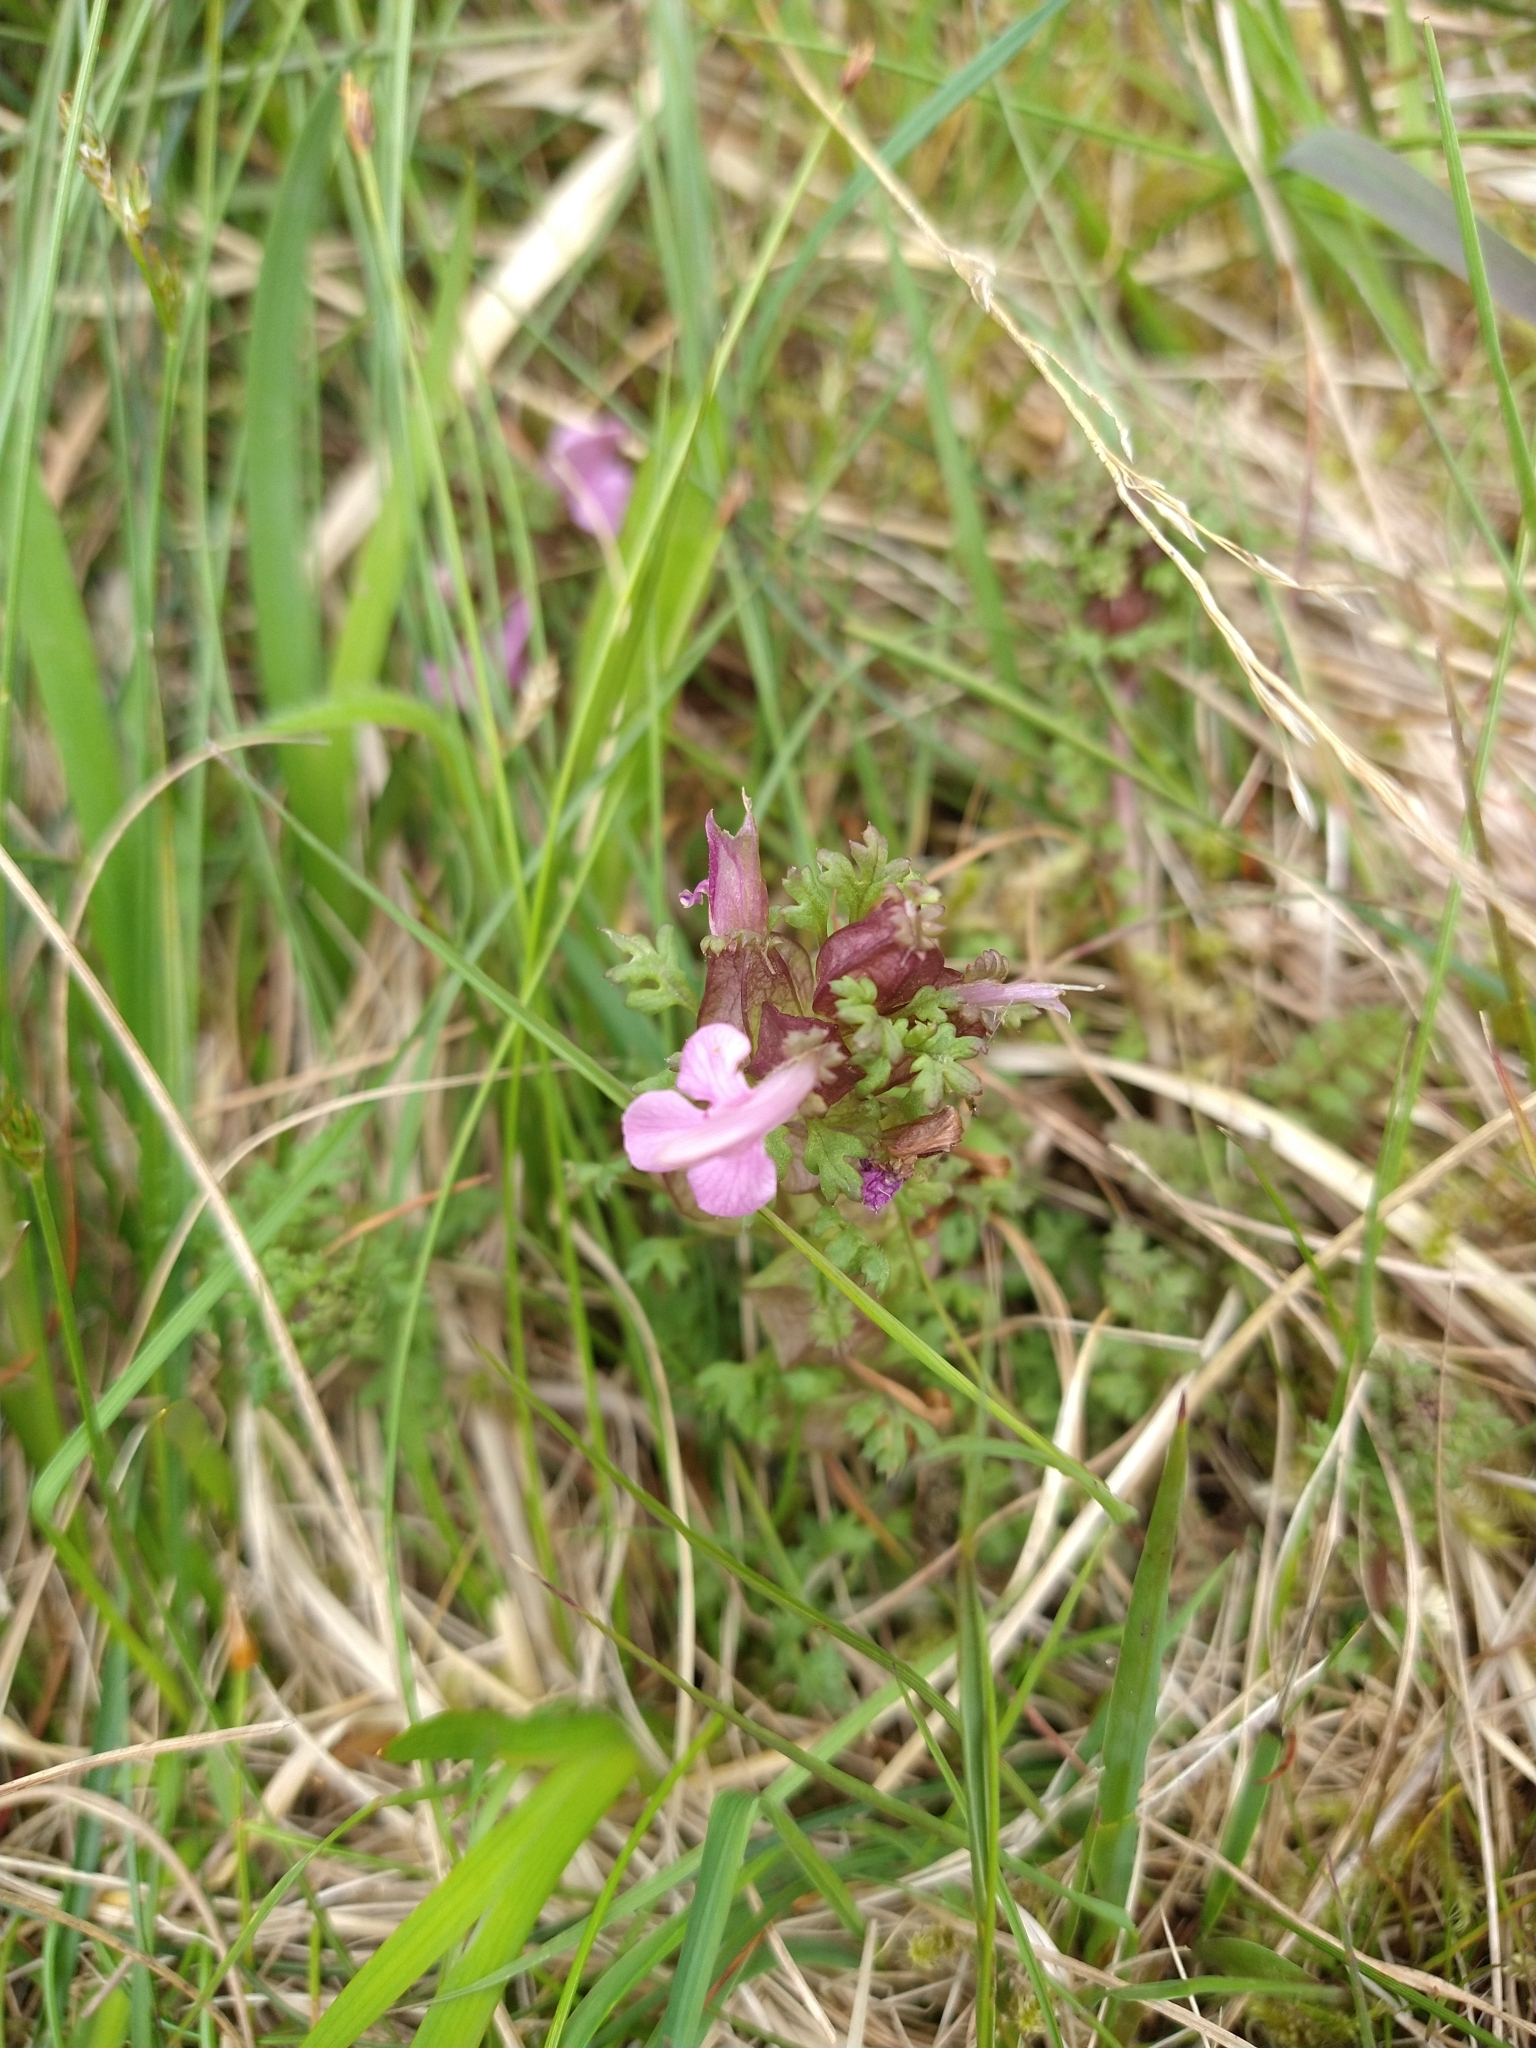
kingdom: Plantae
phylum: Tracheophyta
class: Magnoliopsida
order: Lamiales
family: Orobanchaceae
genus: Pedicularis
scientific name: Pedicularis sylvatica
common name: Lousewort
